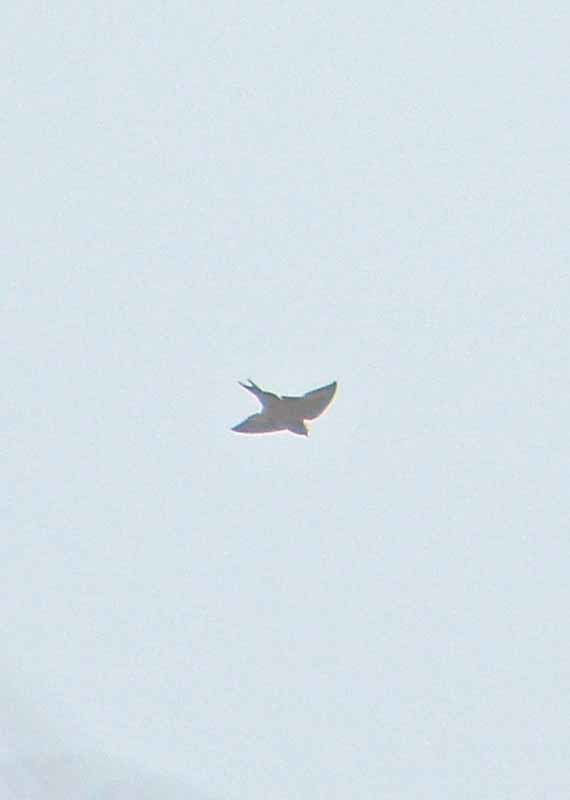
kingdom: Animalia
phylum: Chordata
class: Aves
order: Passeriformes
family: Hirundinidae
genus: Hirundo
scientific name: Hirundo rustica
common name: Barn swallow
